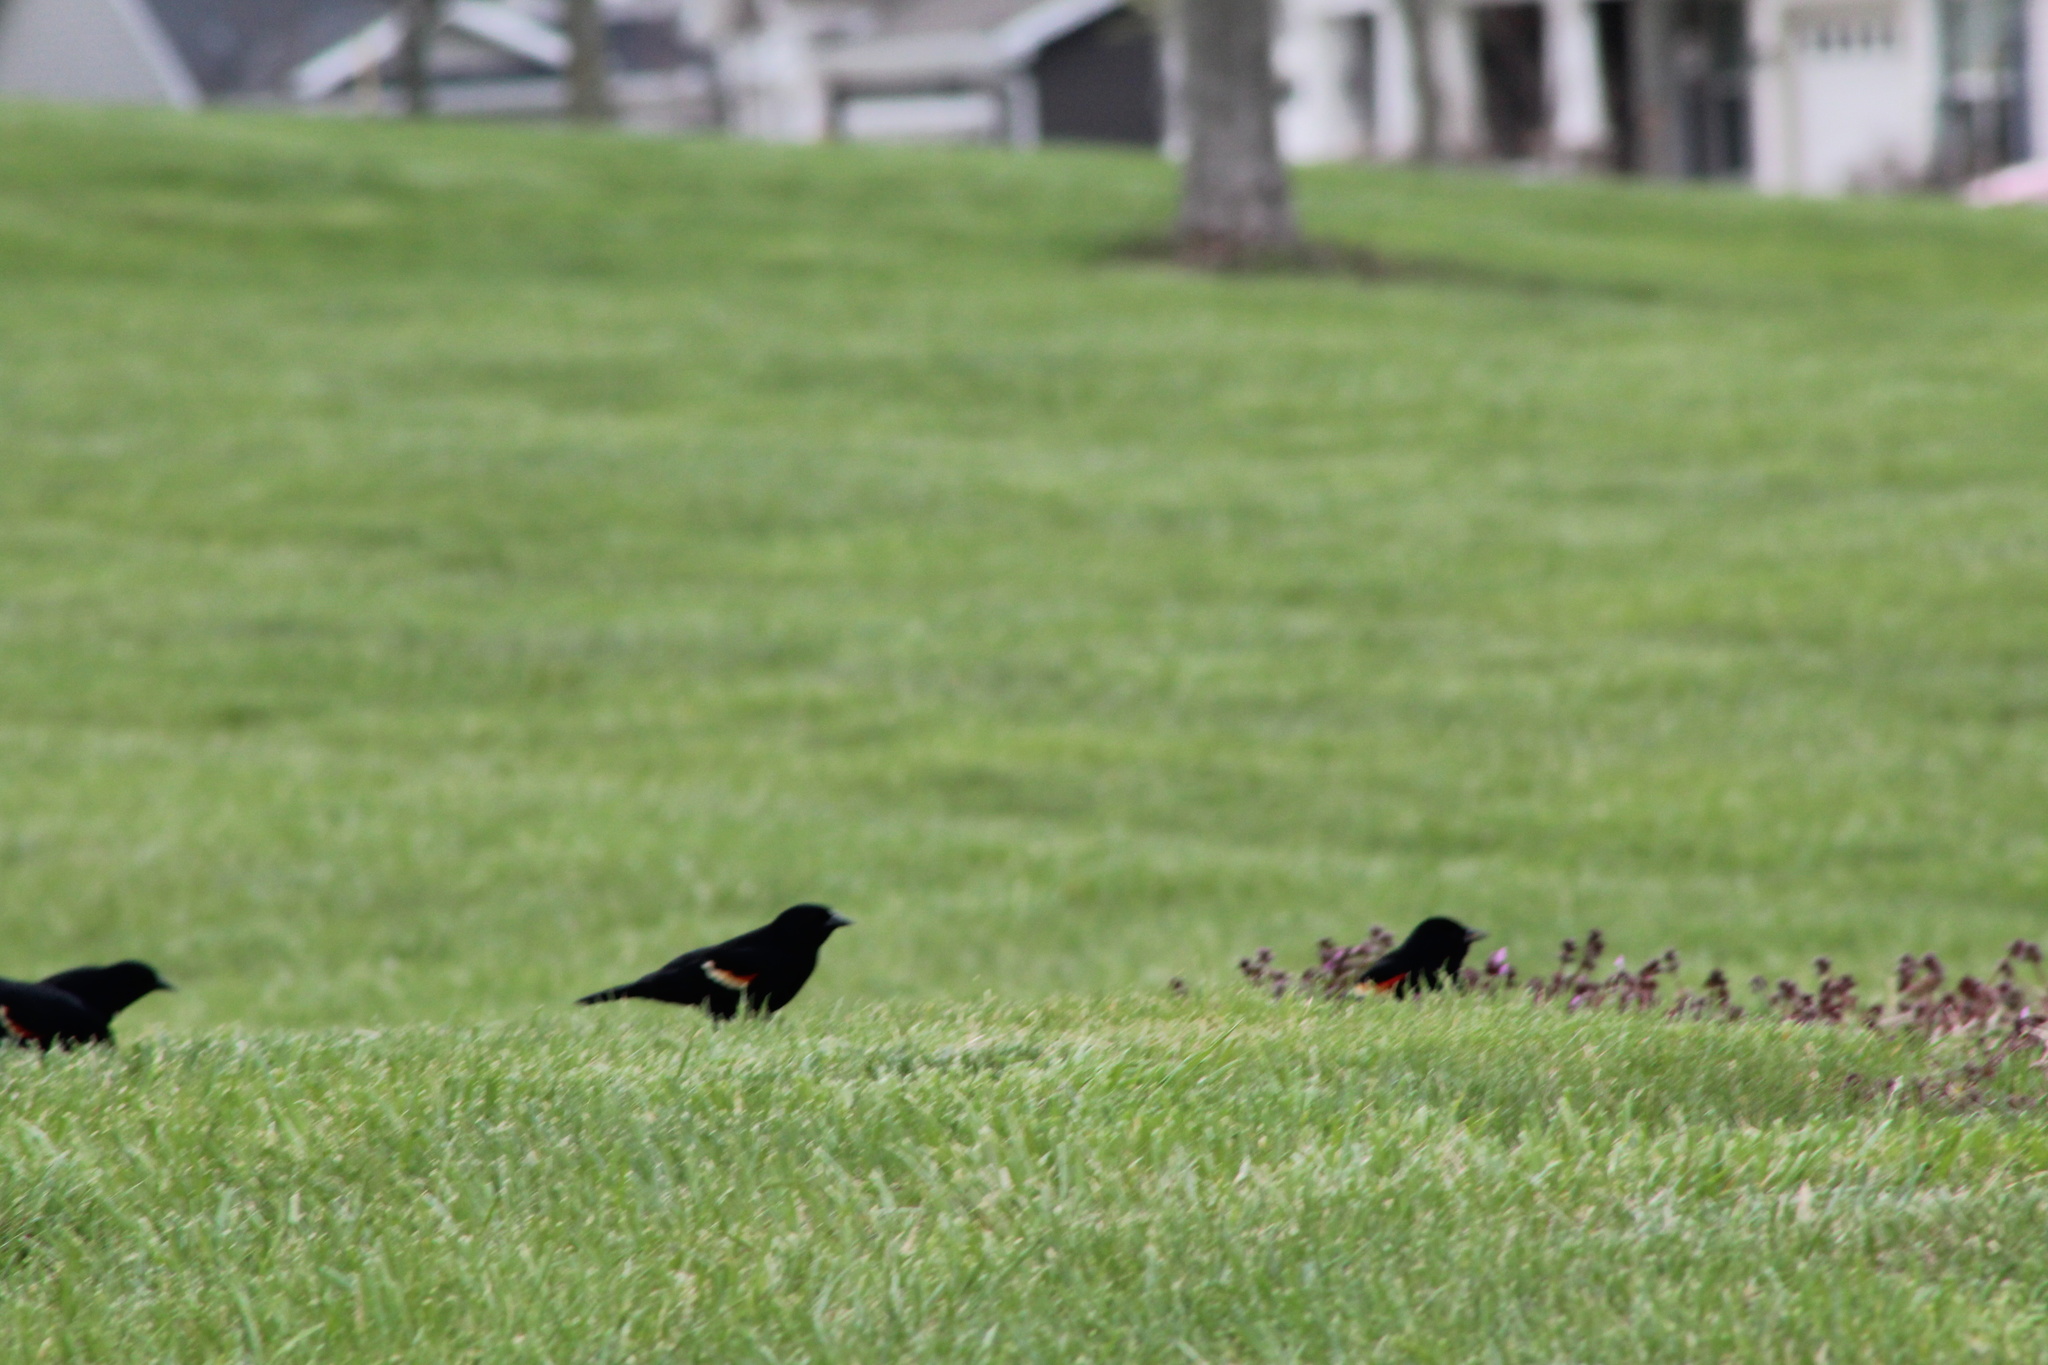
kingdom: Animalia
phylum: Chordata
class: Aves
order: Passeriformes
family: Icteridae
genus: Agelaius
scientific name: Agelaius phoeniceus
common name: Red-winged blackbird
